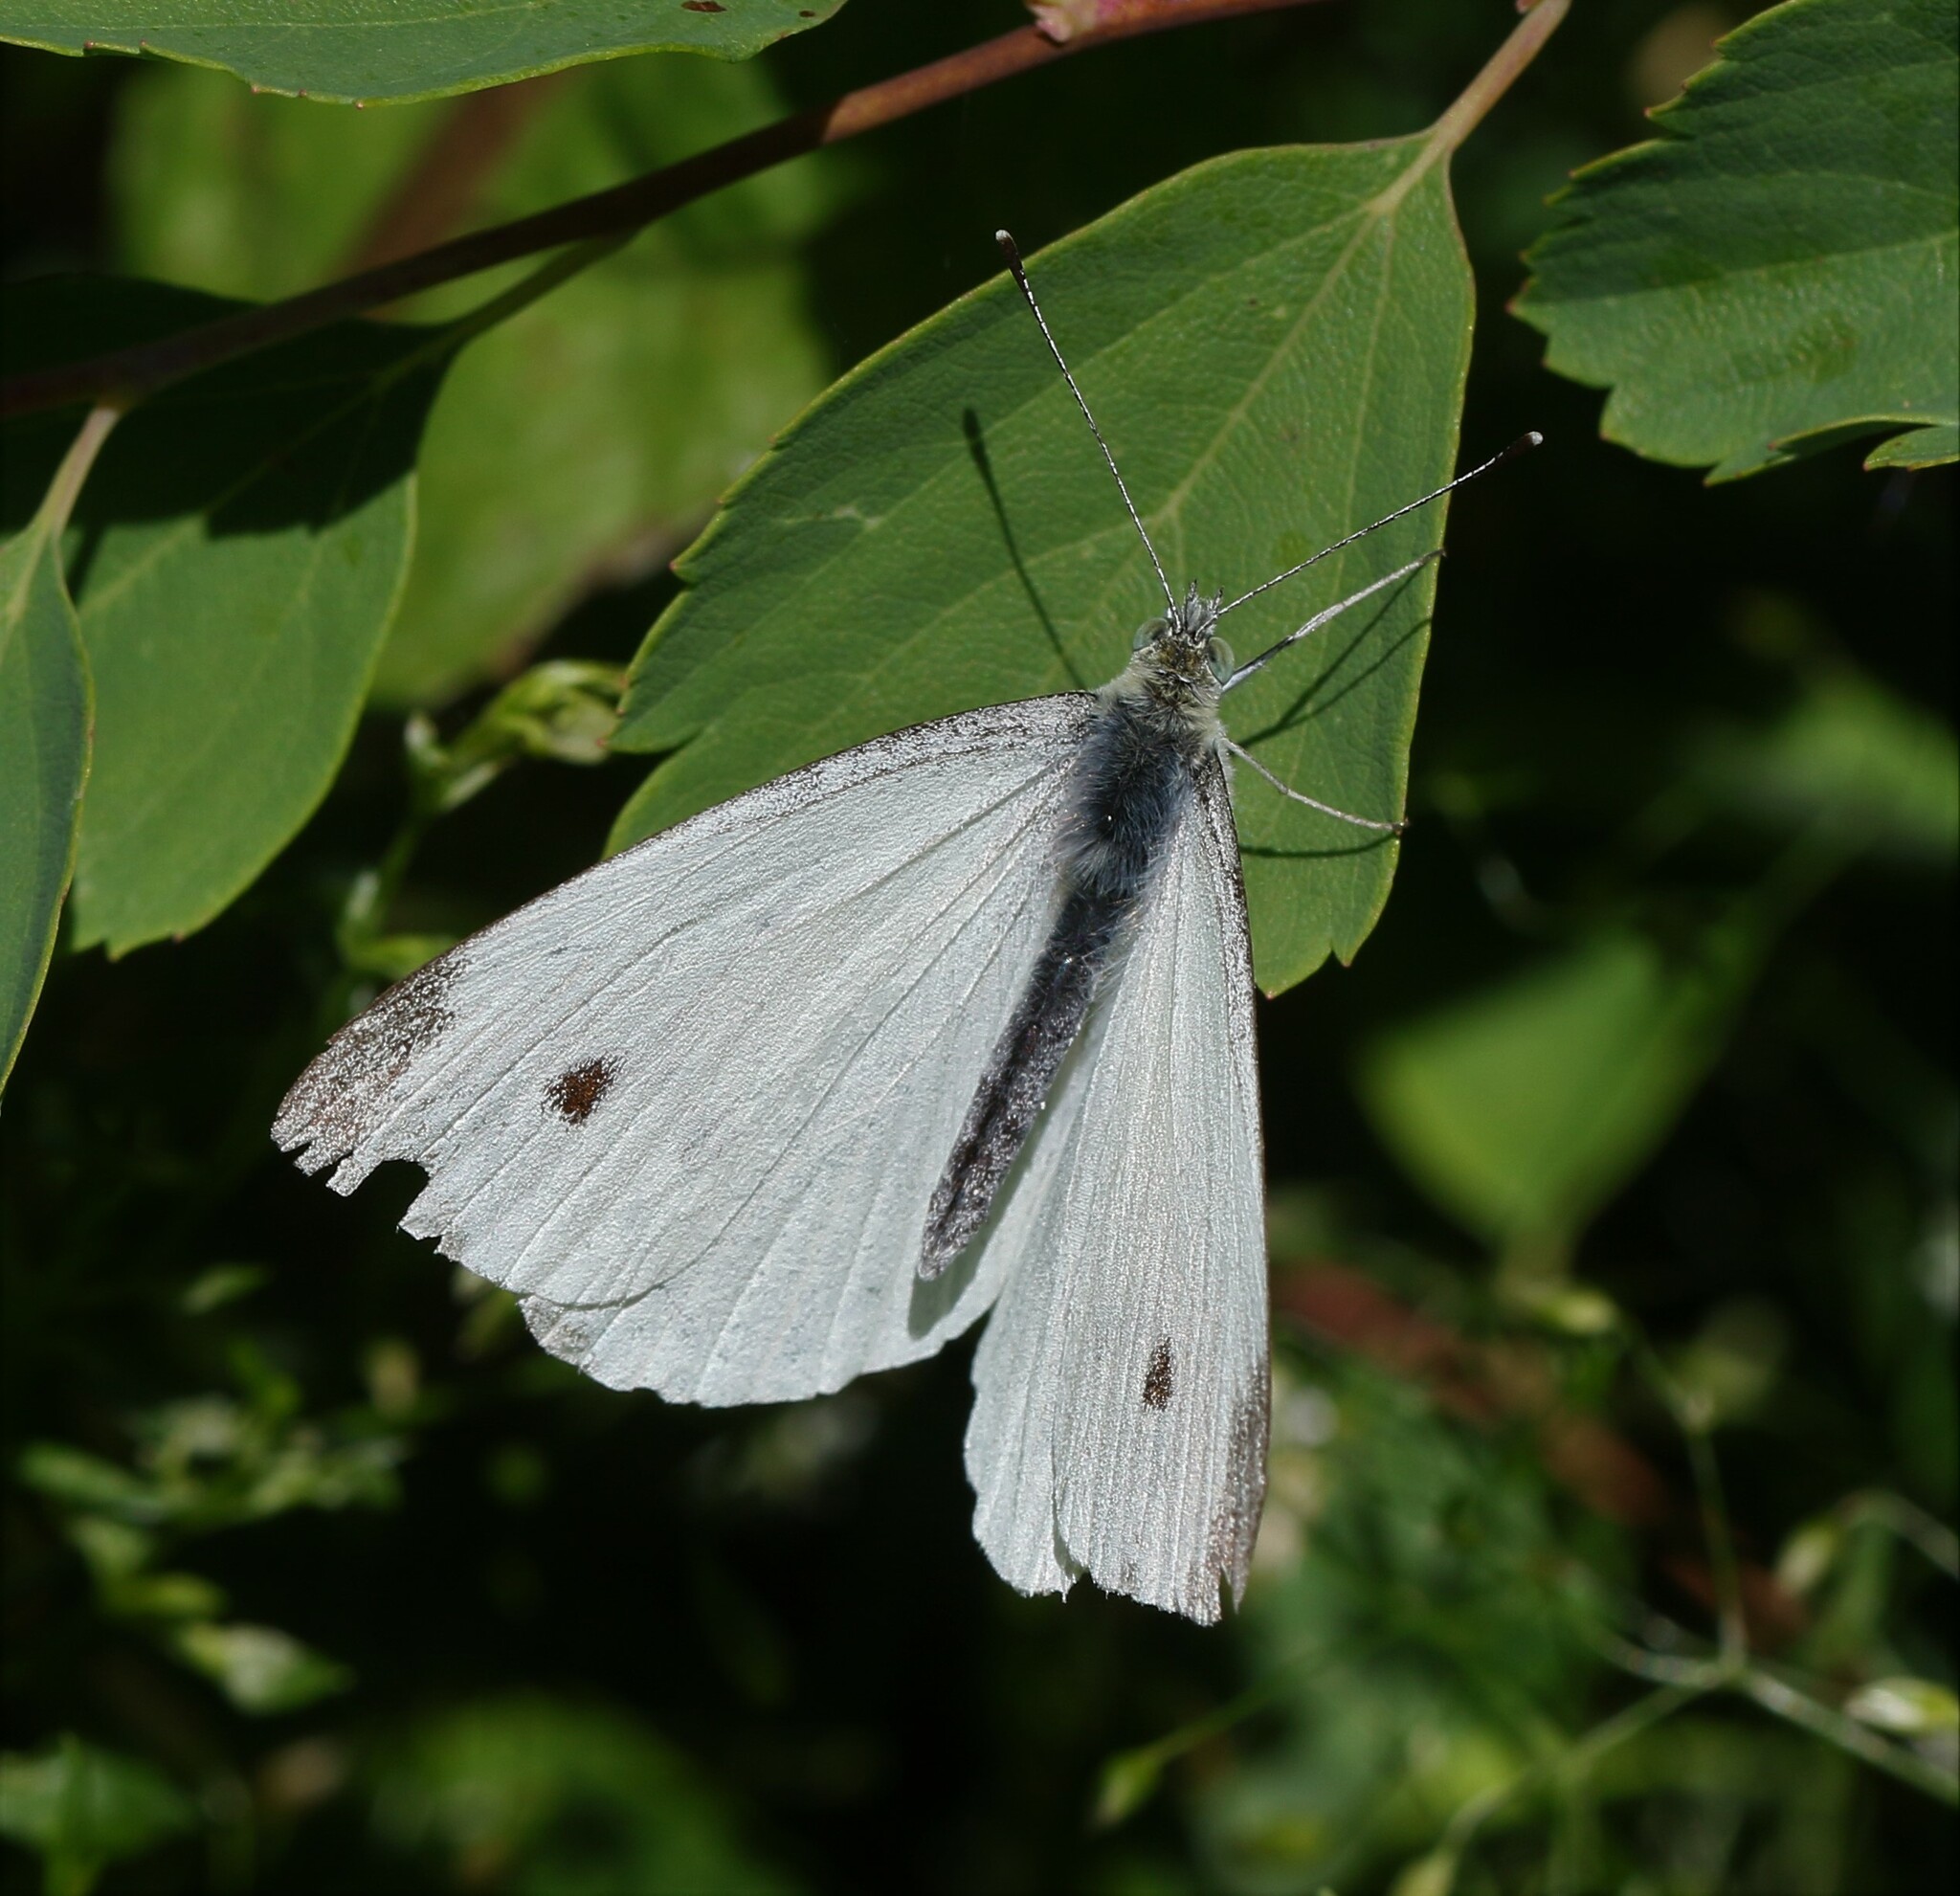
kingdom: Animalia
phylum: Arthropoda
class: Insecta
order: Lepidoptera
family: Pieridae
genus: Pieris
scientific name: Pieris rapae
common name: Small white
